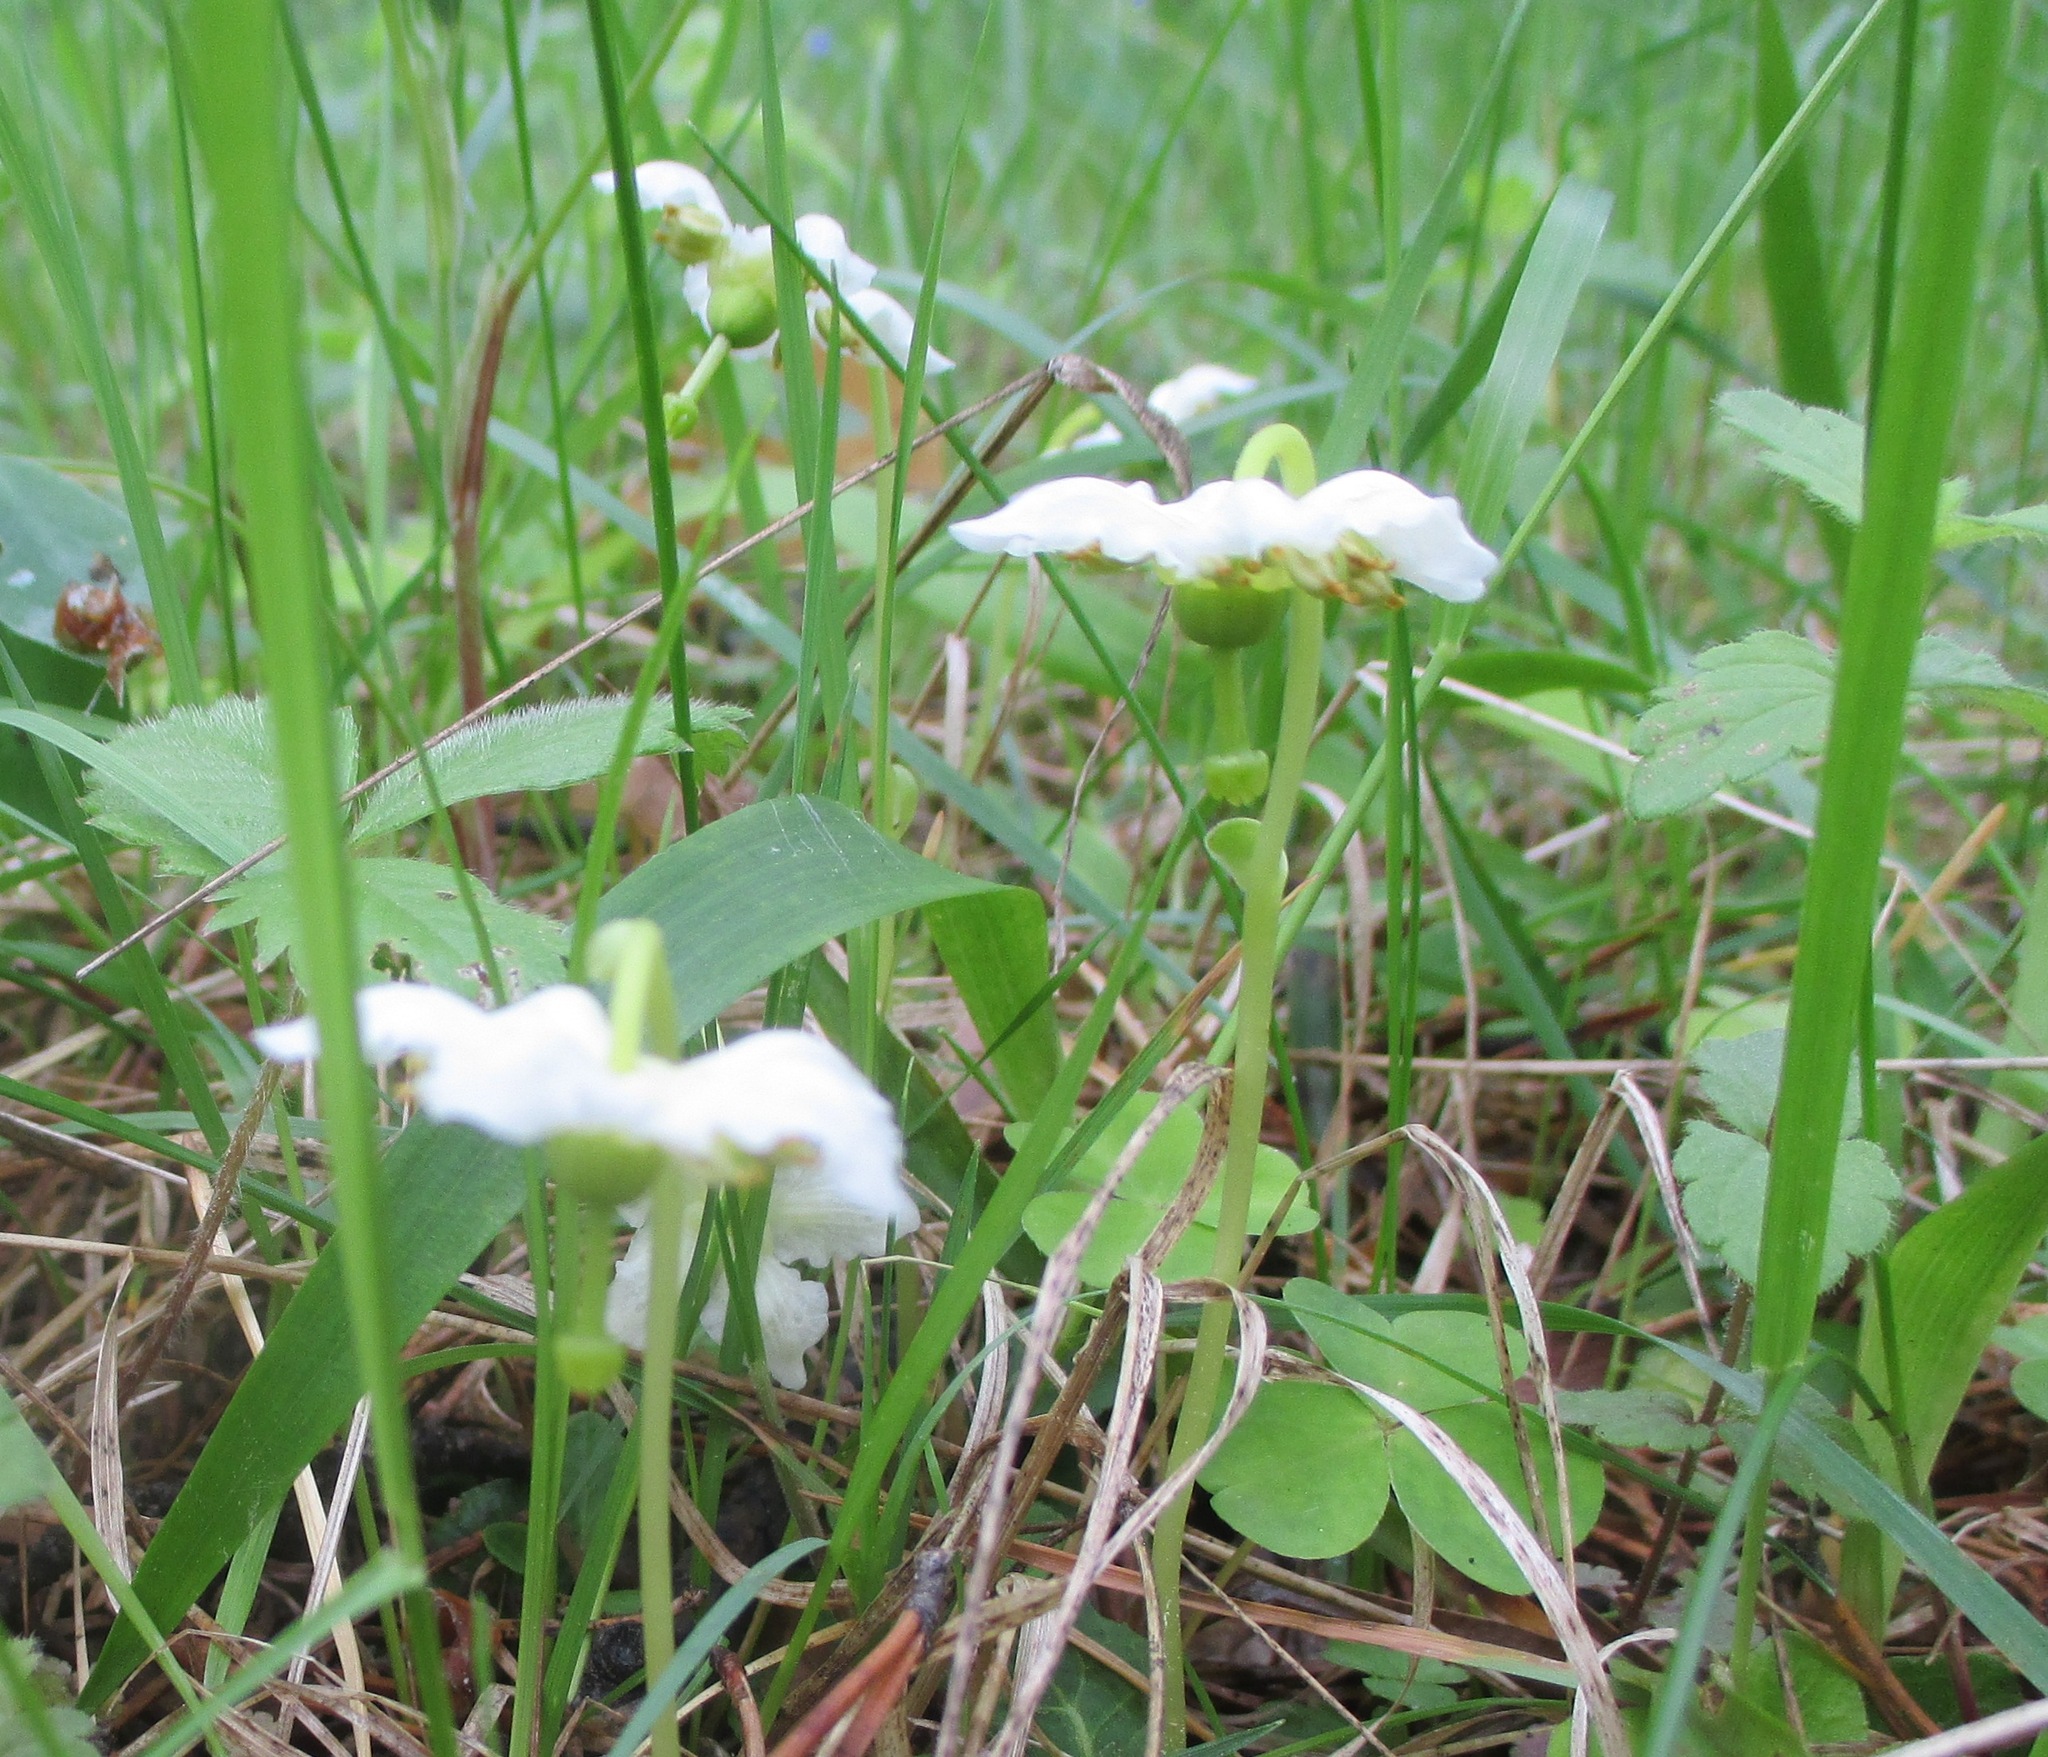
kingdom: Plantae
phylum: Tracheophyta
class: Magnoliopsida
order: Ericales
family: Ericaceae
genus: Moneses
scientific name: Moneses uniflora
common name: One-flowered wintergreen
